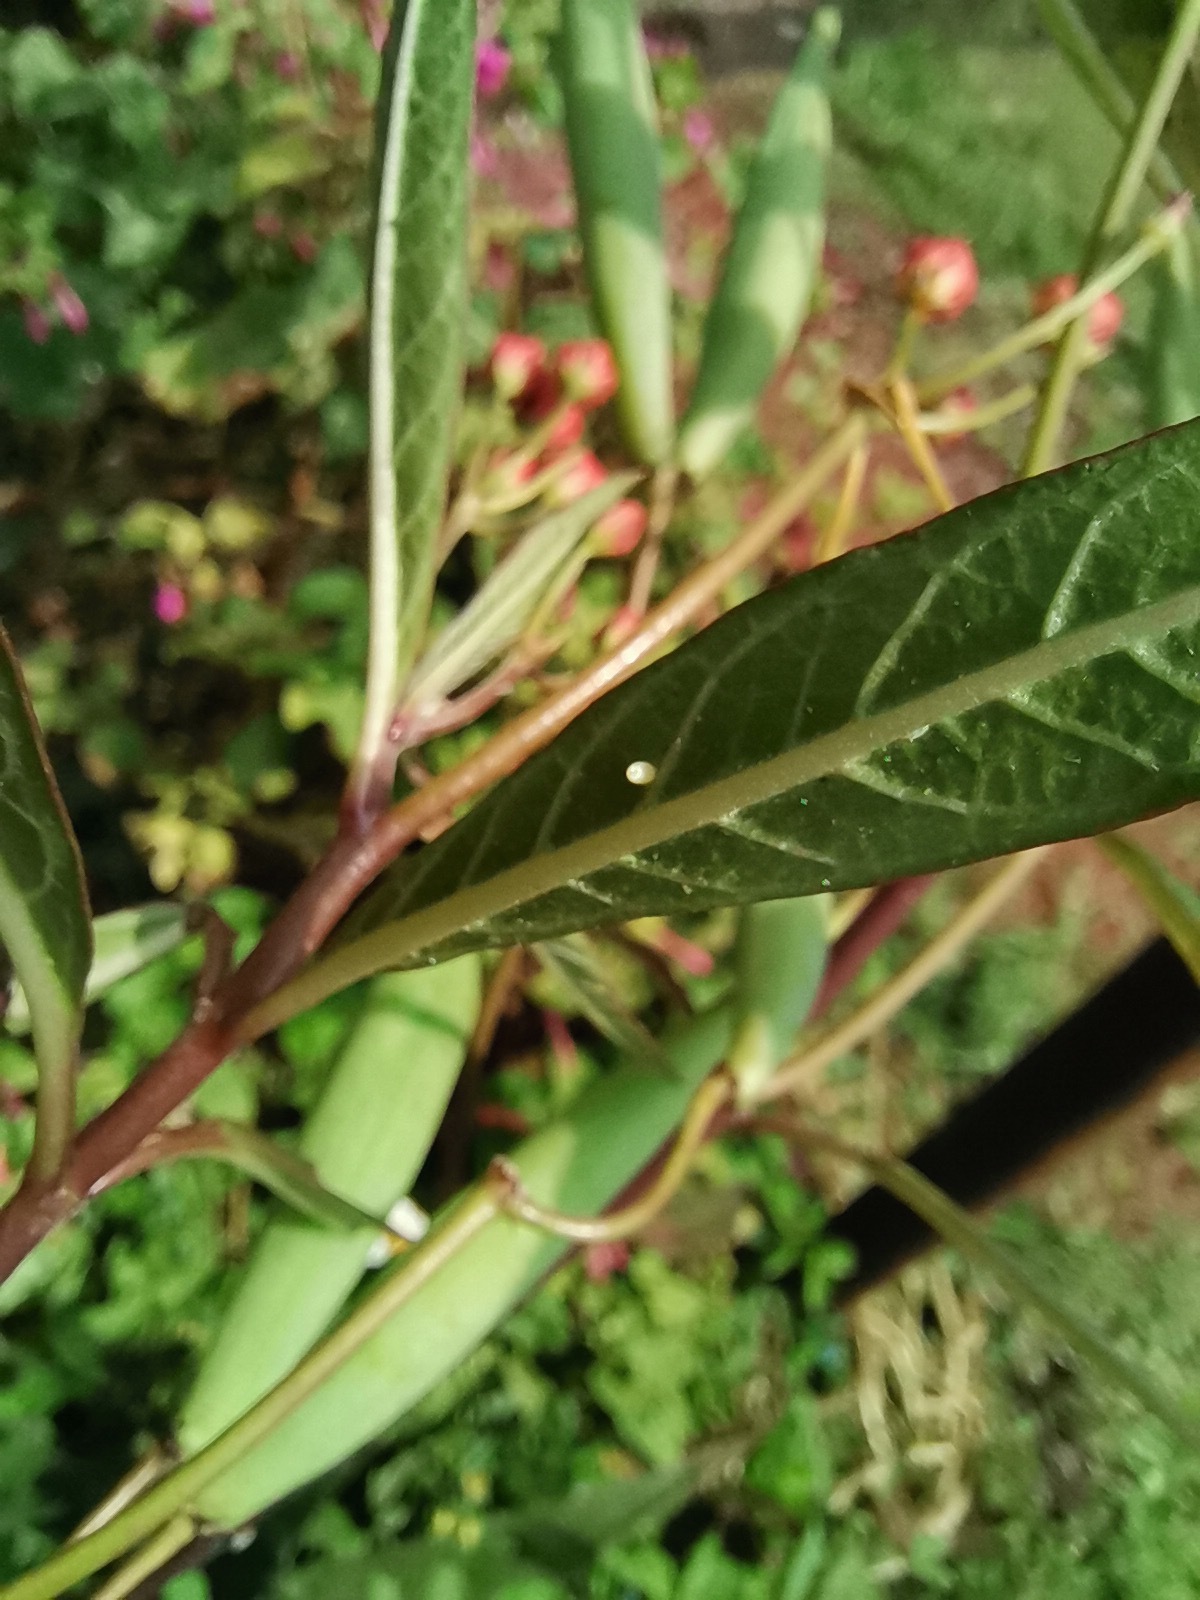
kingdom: Animalia
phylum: Arthropoda
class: Insecta
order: Lepidoptera
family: Nymphalidae
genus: Danaus
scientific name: Danaus plexippus
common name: Monarch
